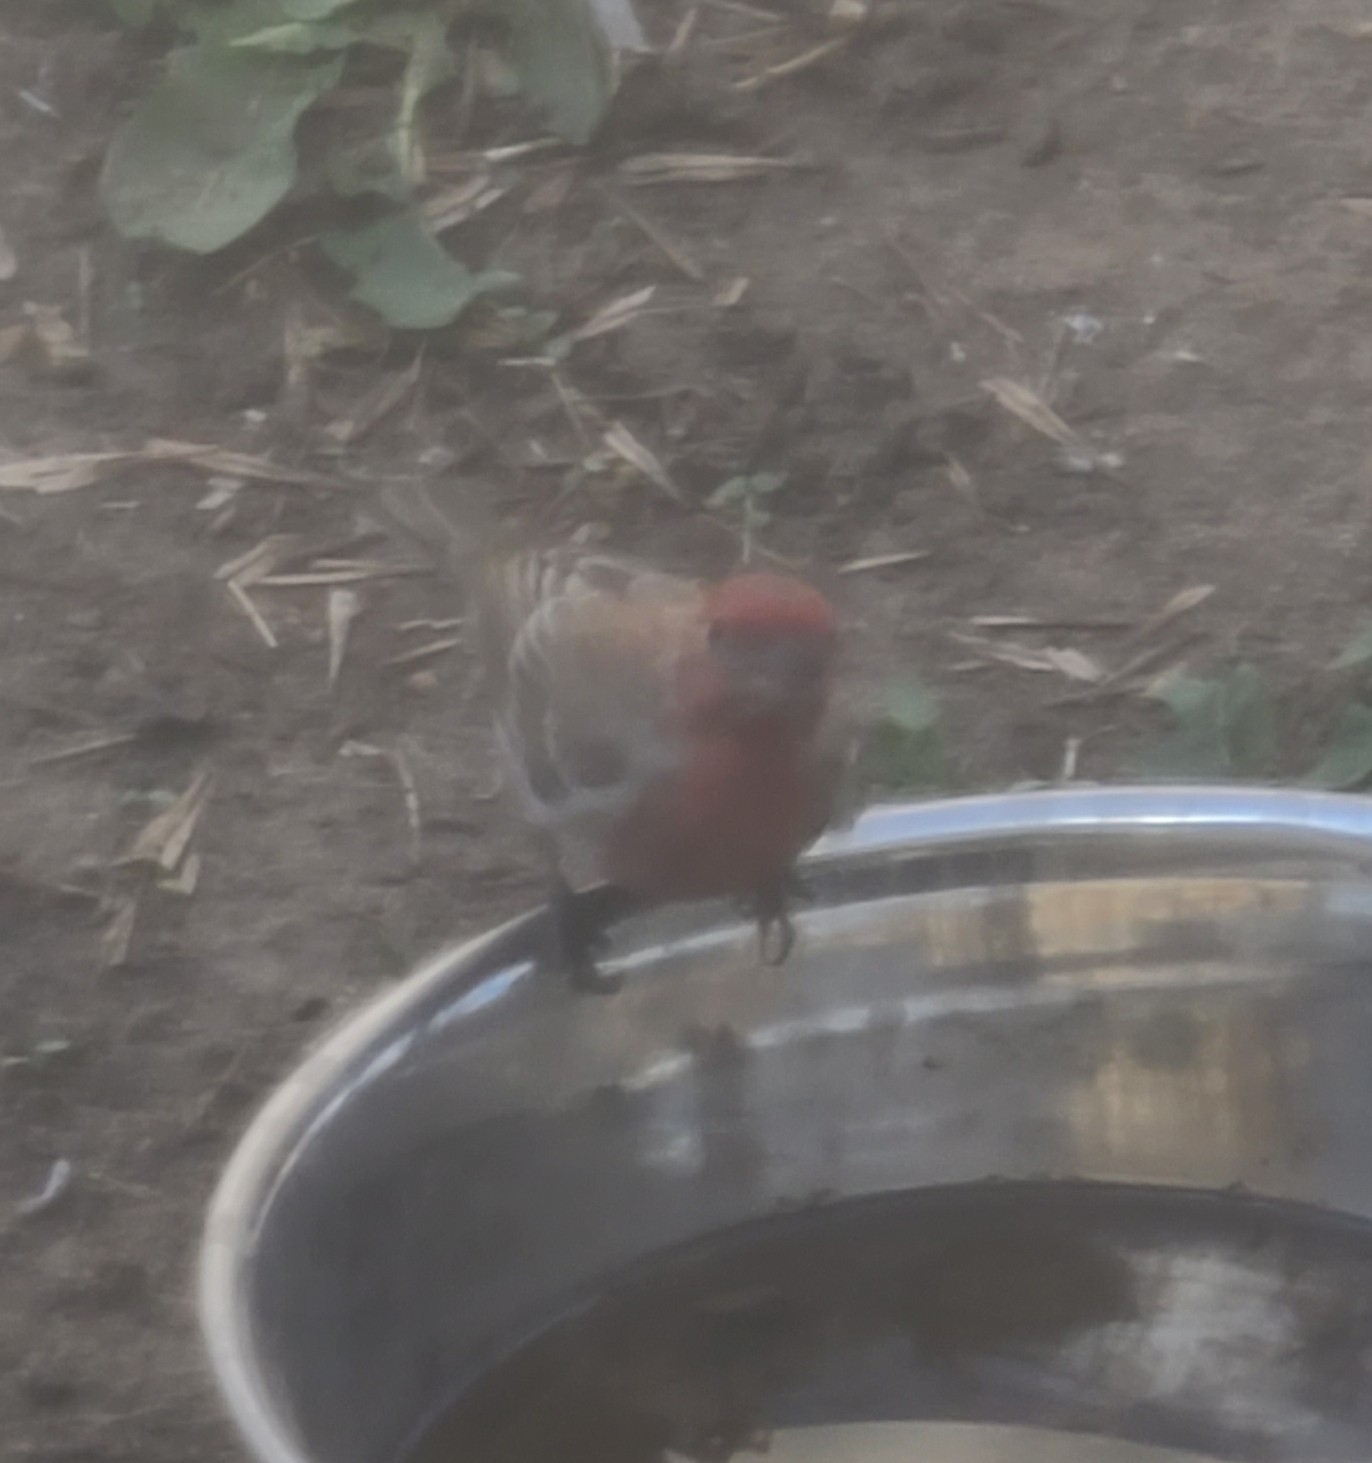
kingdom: Animalia
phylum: Chordata
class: Aves
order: Passeriformes
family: Fringillidae
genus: Haemorhous
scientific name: Haemorhous mexicanus
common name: House finch
